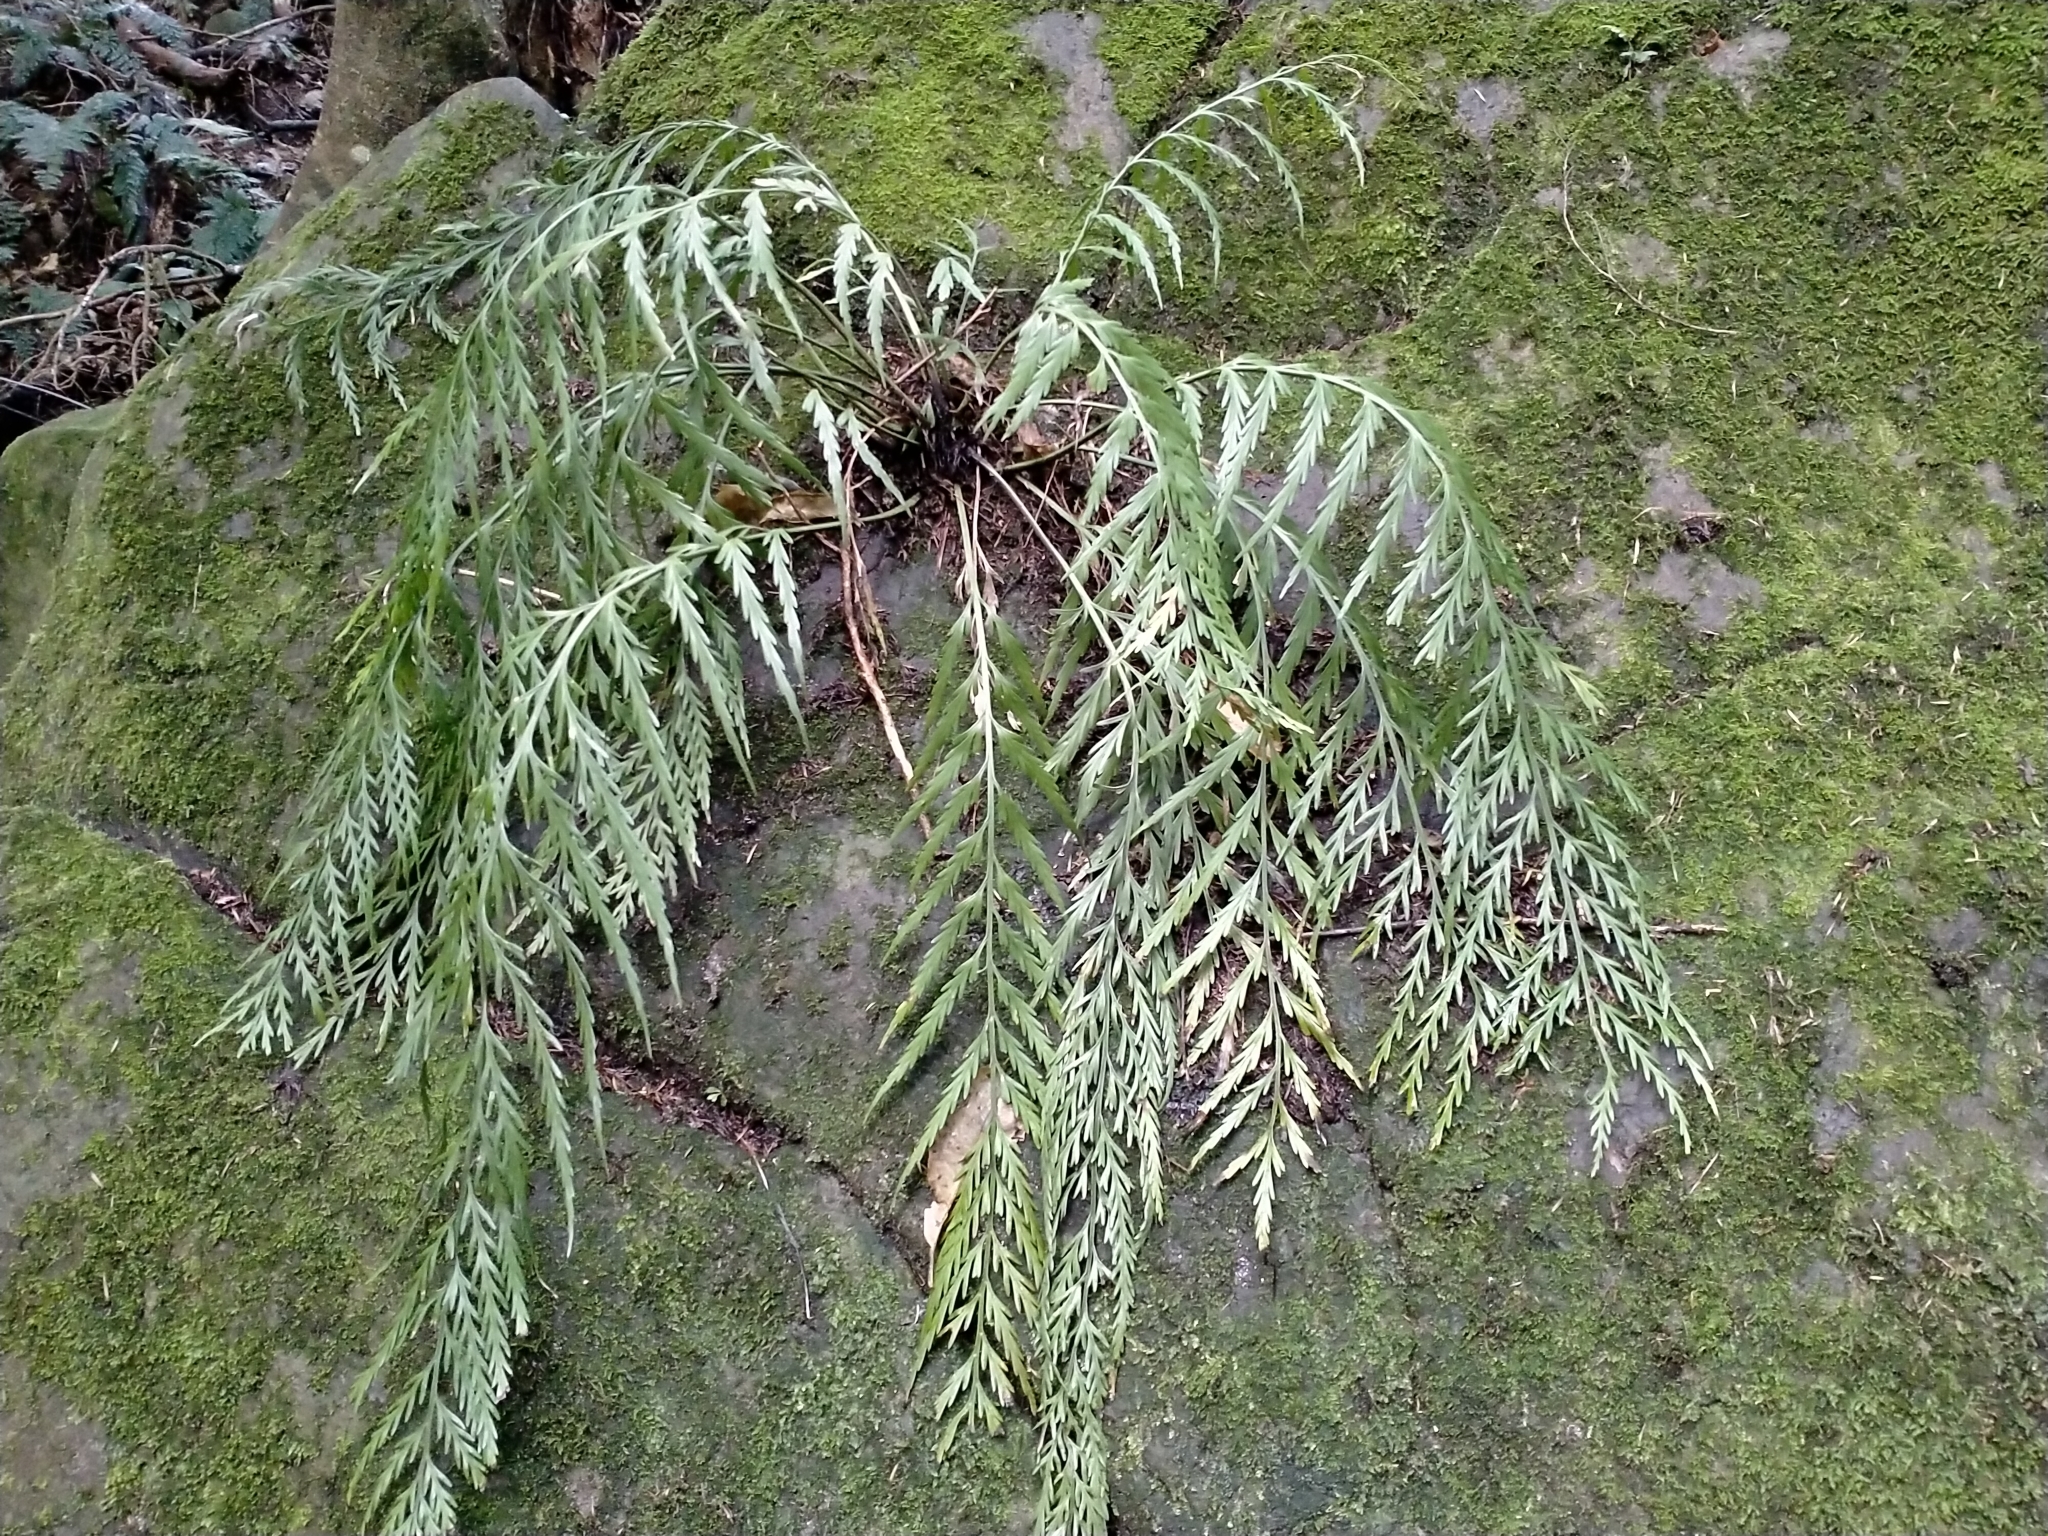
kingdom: Plantae
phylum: Tracheophyta
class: Polypodiopsida
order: Polypodiales
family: Aspleniaceae
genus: Asplenium
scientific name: Asplenium flaccidum
